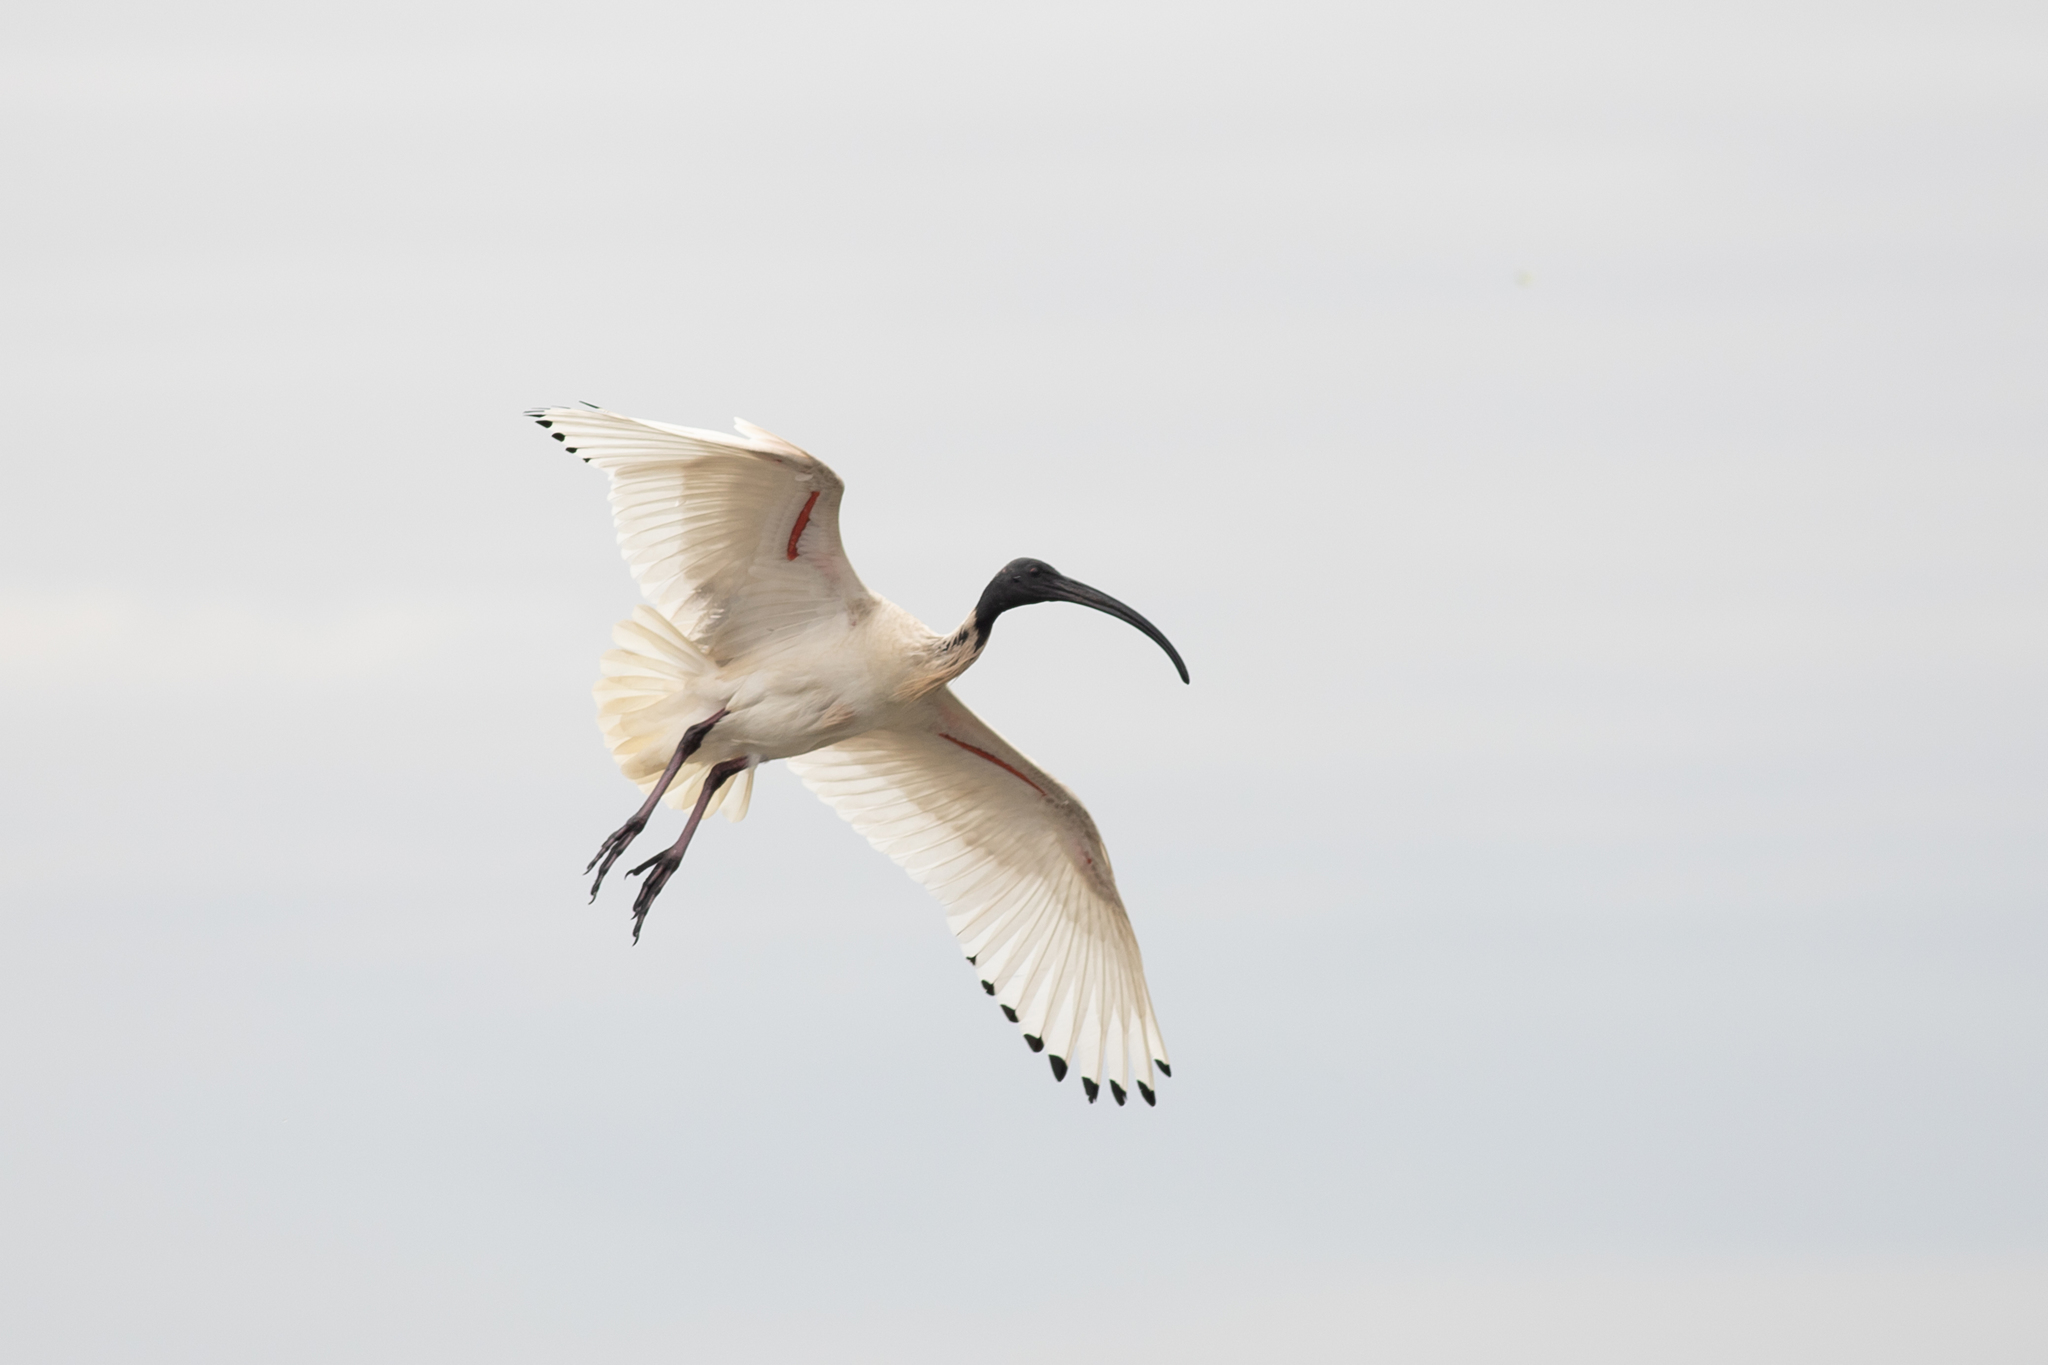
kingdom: Animalia
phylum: Chordata
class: Aves
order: Pelecaniformes
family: Threskiornithidae
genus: Threskiornis
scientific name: Threskiornis molucca
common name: Australian white ibis
